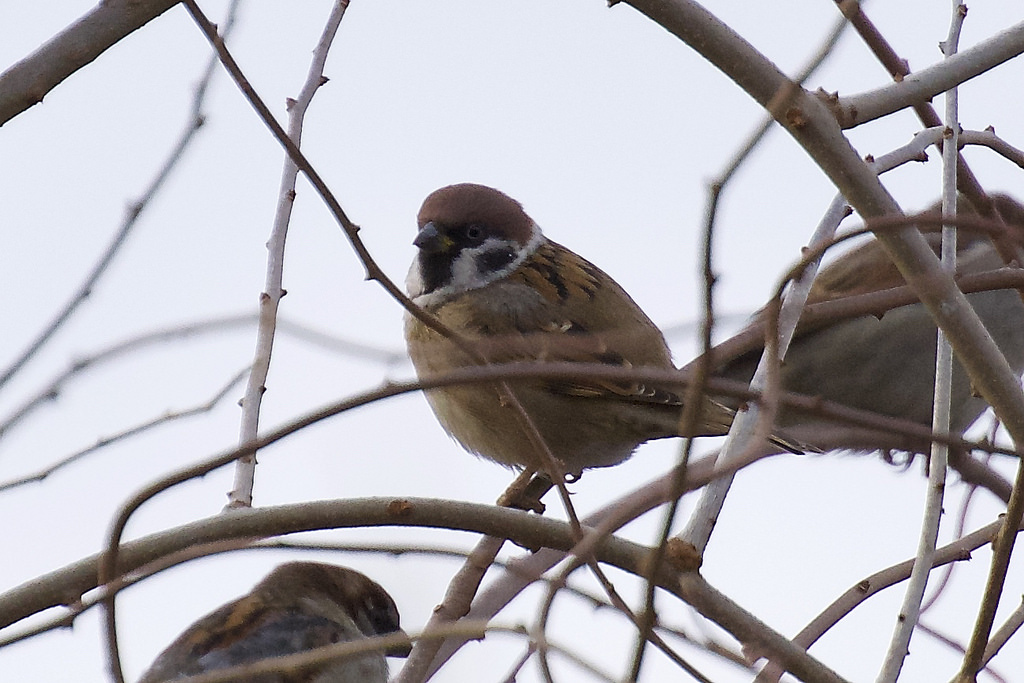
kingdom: Animalia
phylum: Chordata
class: Aves
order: Passeriformes
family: Passeridae
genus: Passer
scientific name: Passer montanus
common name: Eurasian tree sparrow
